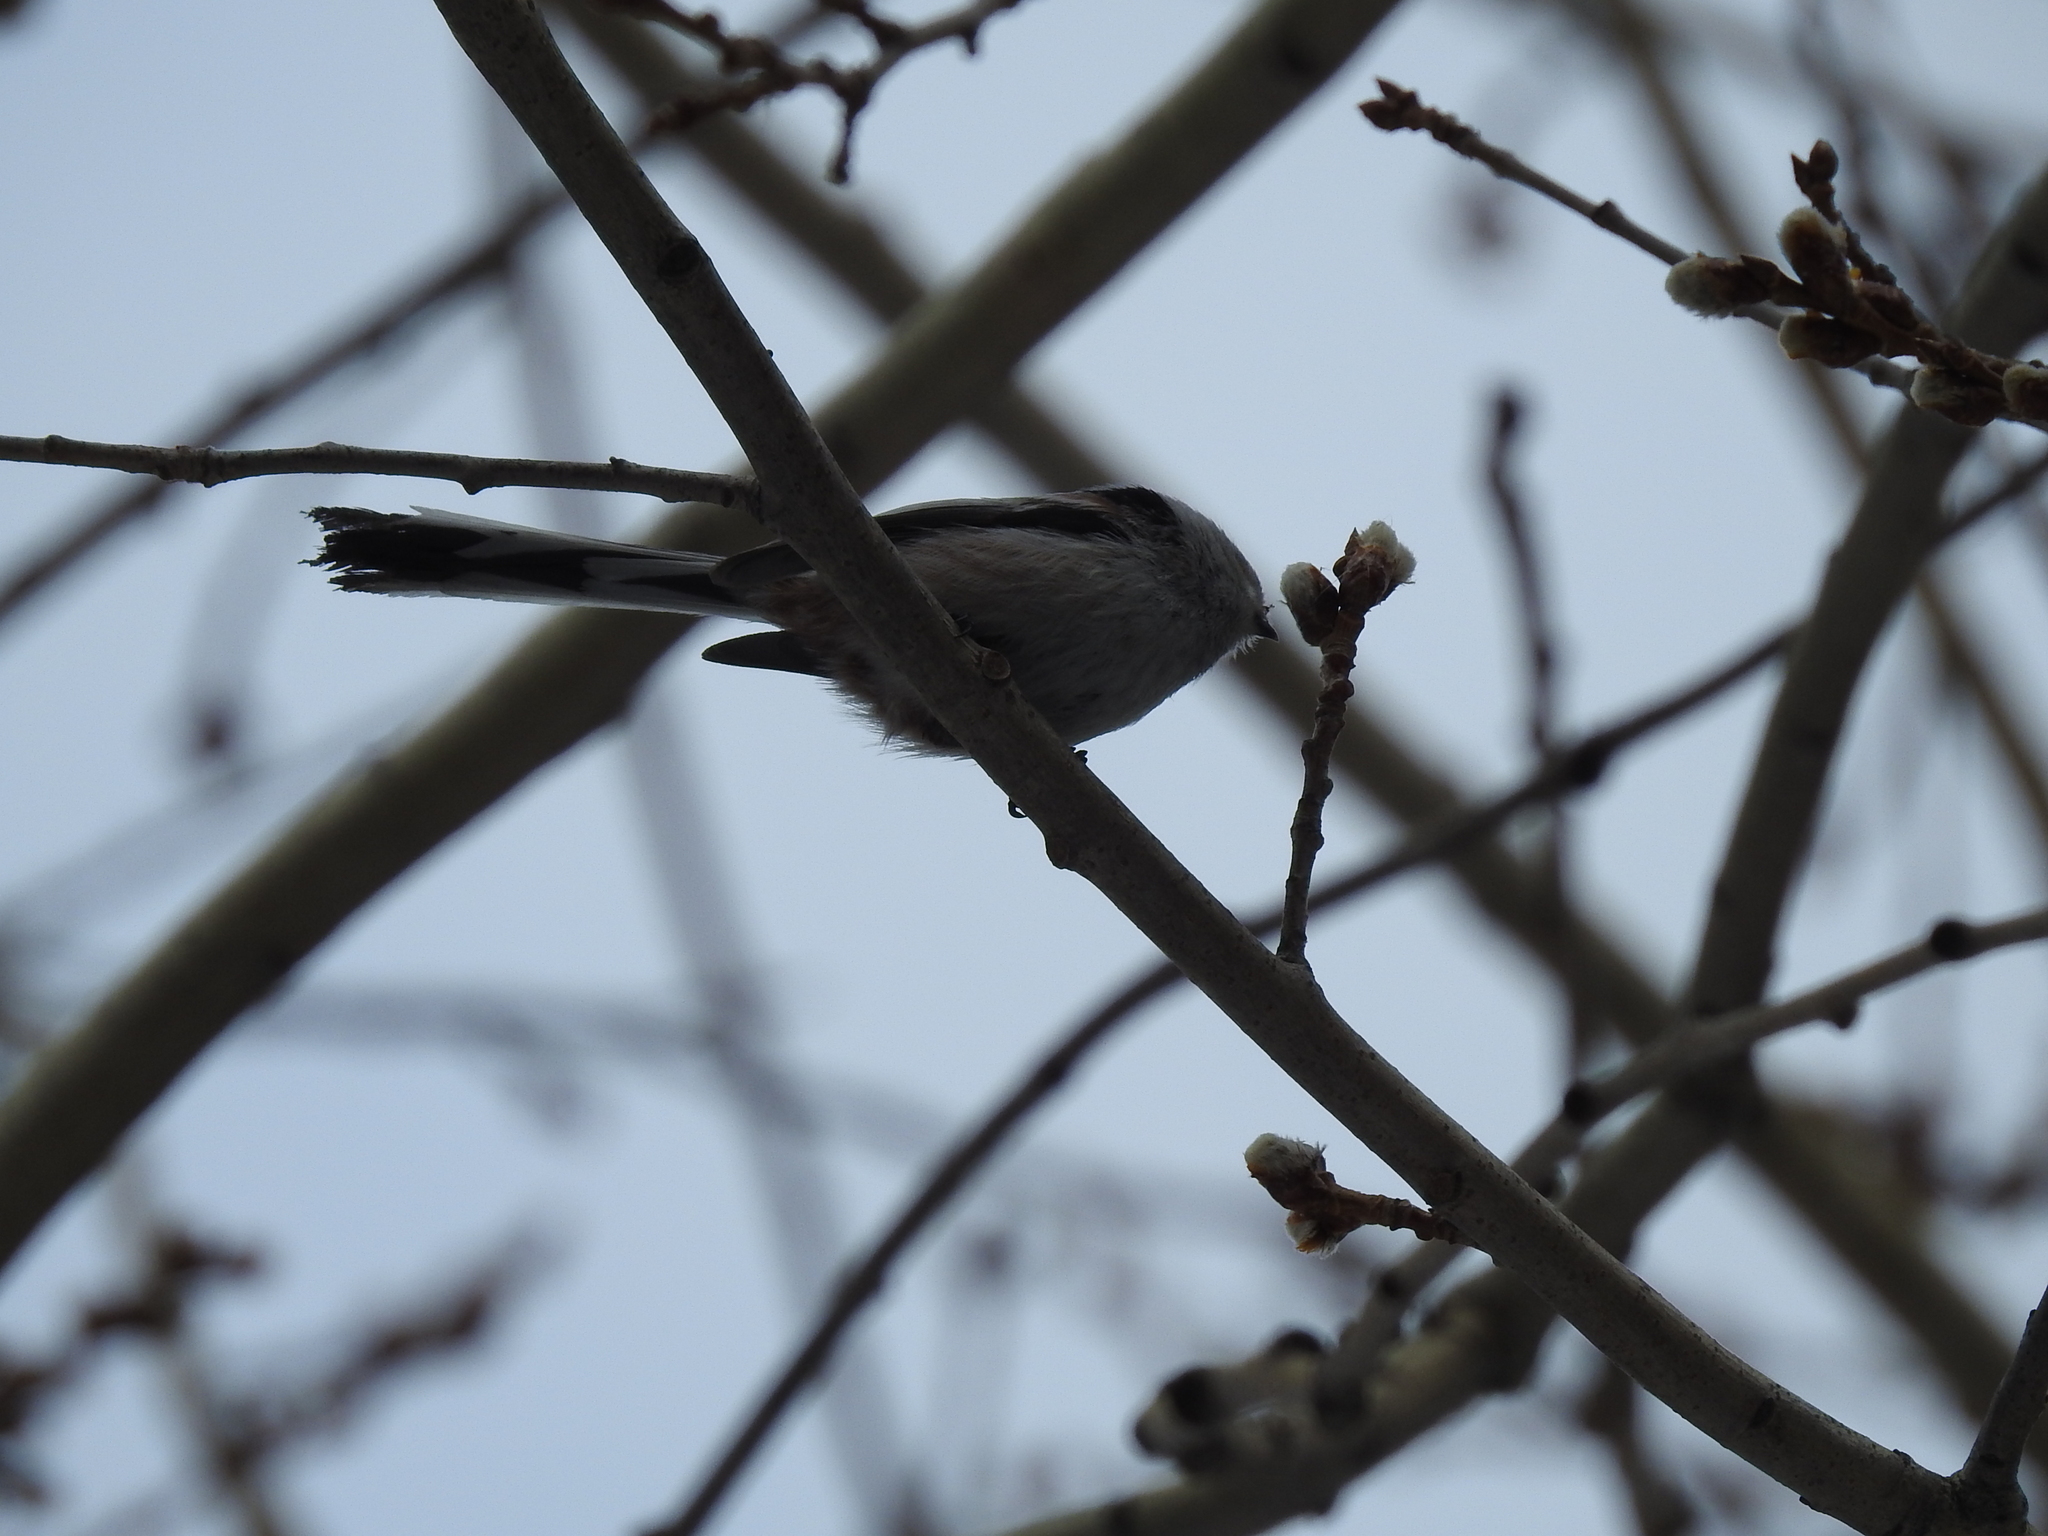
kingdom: Animalia
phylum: Chordata
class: Aves
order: Passeriformes
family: Aegithalidae
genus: Aegithalos
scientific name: Aegithalos caudatus
